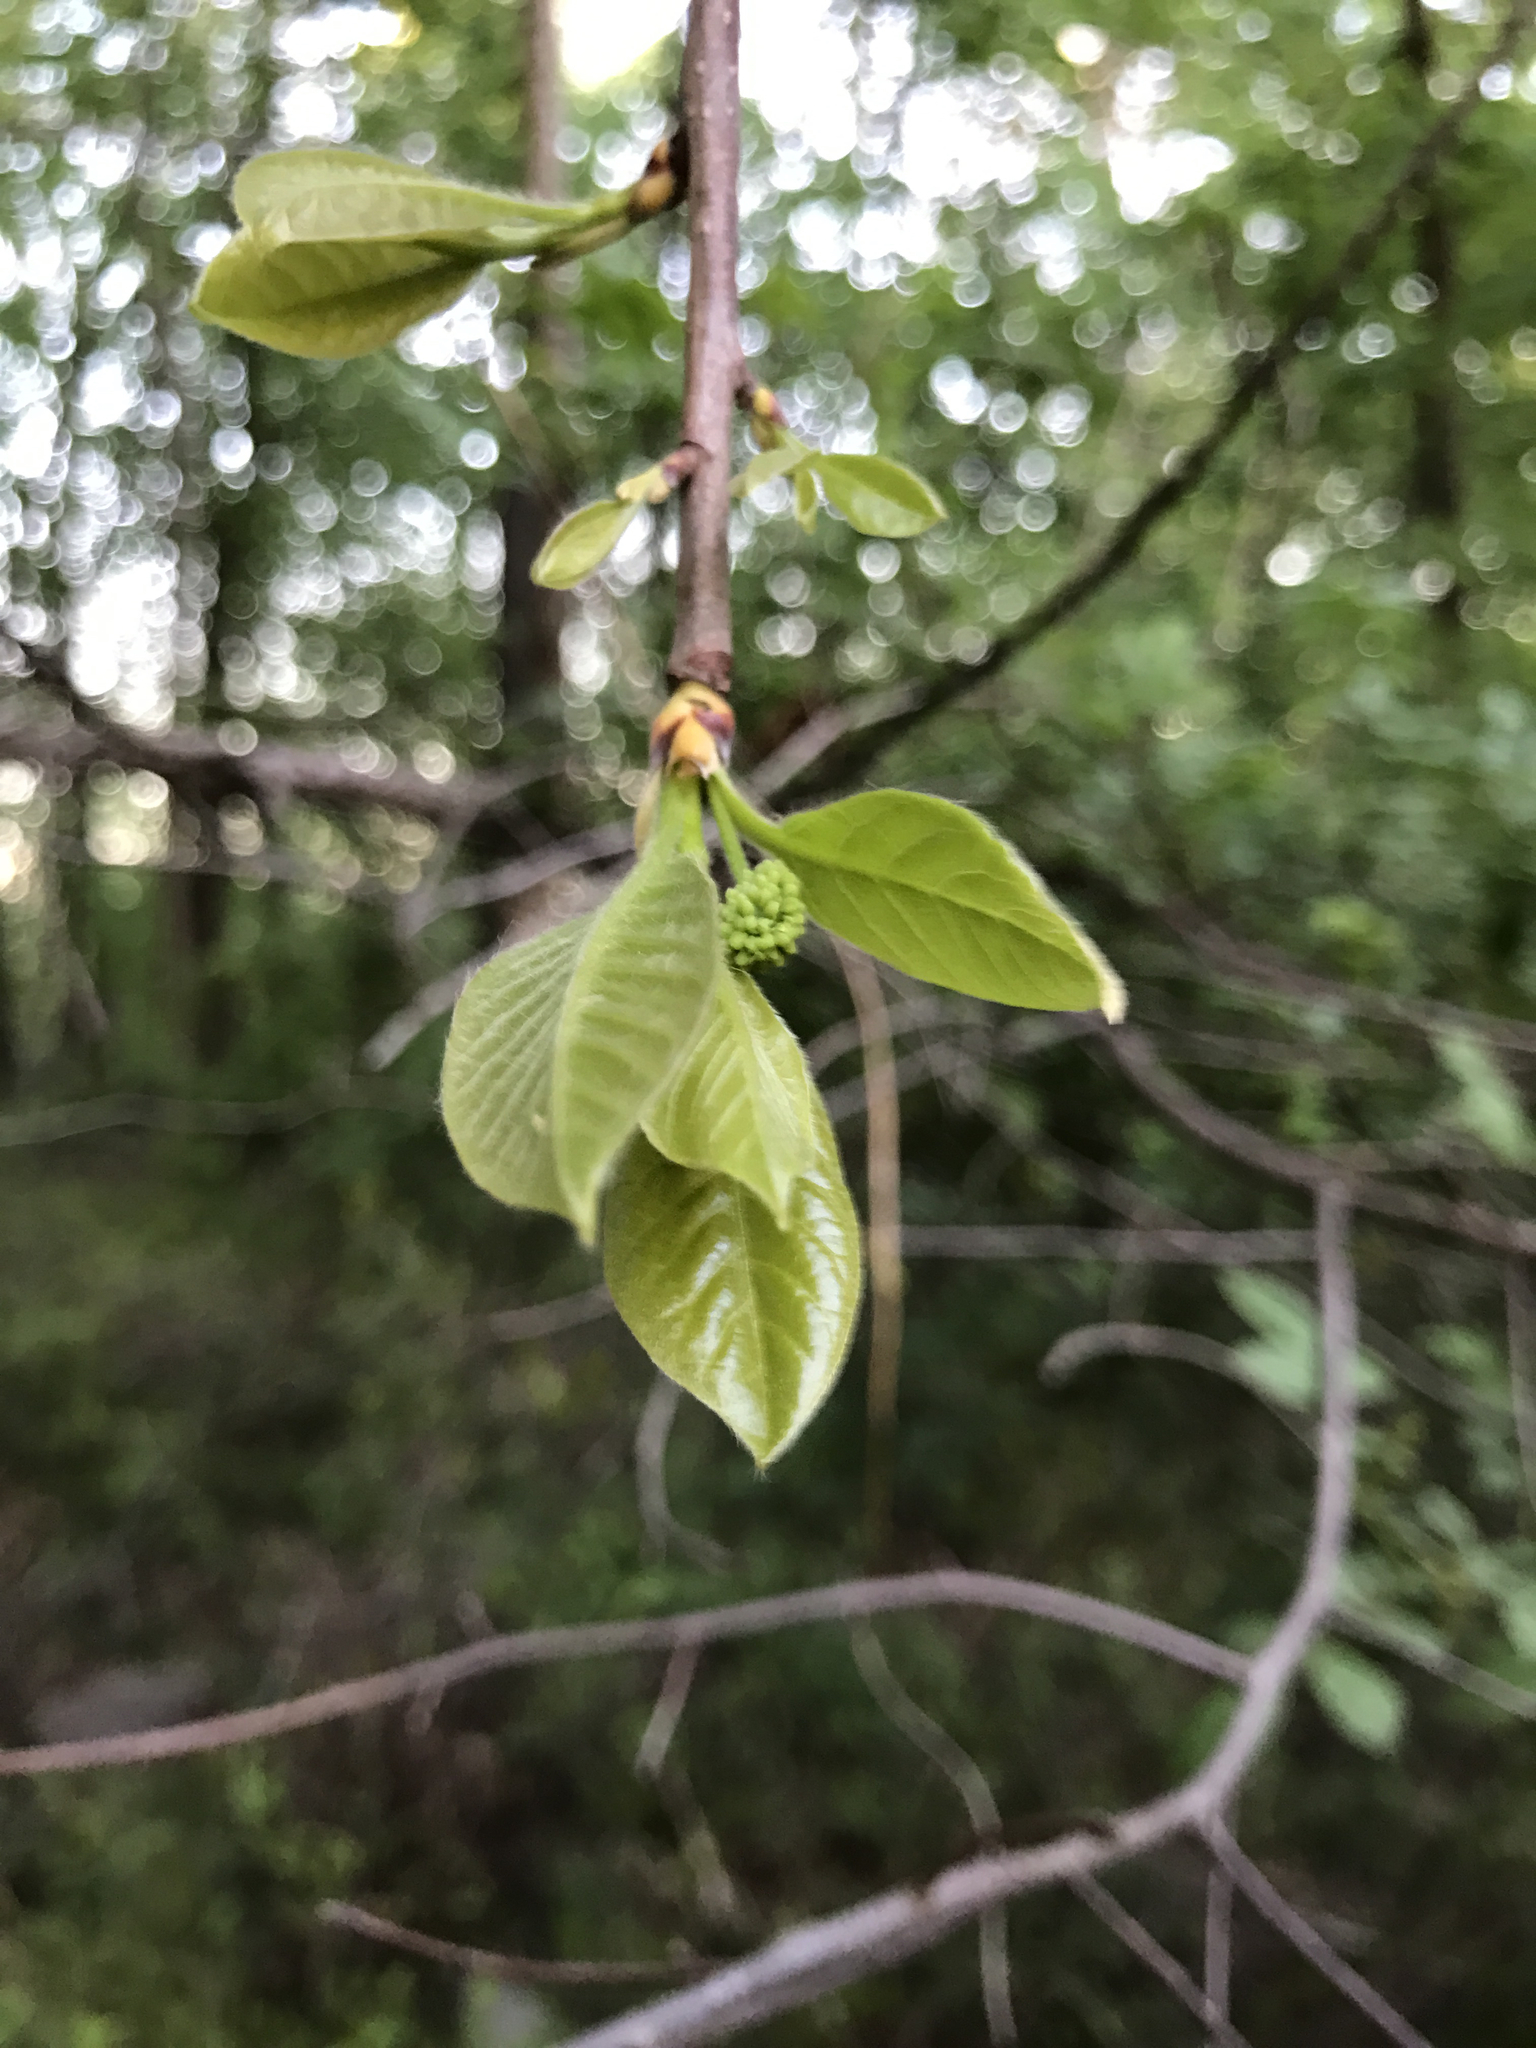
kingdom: Plantae
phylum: Tracheophyta
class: Magnoliopsida
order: Cornales
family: Nyssaceae
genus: Nyssa
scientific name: Nyssa sylvatica
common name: Black tupelo
